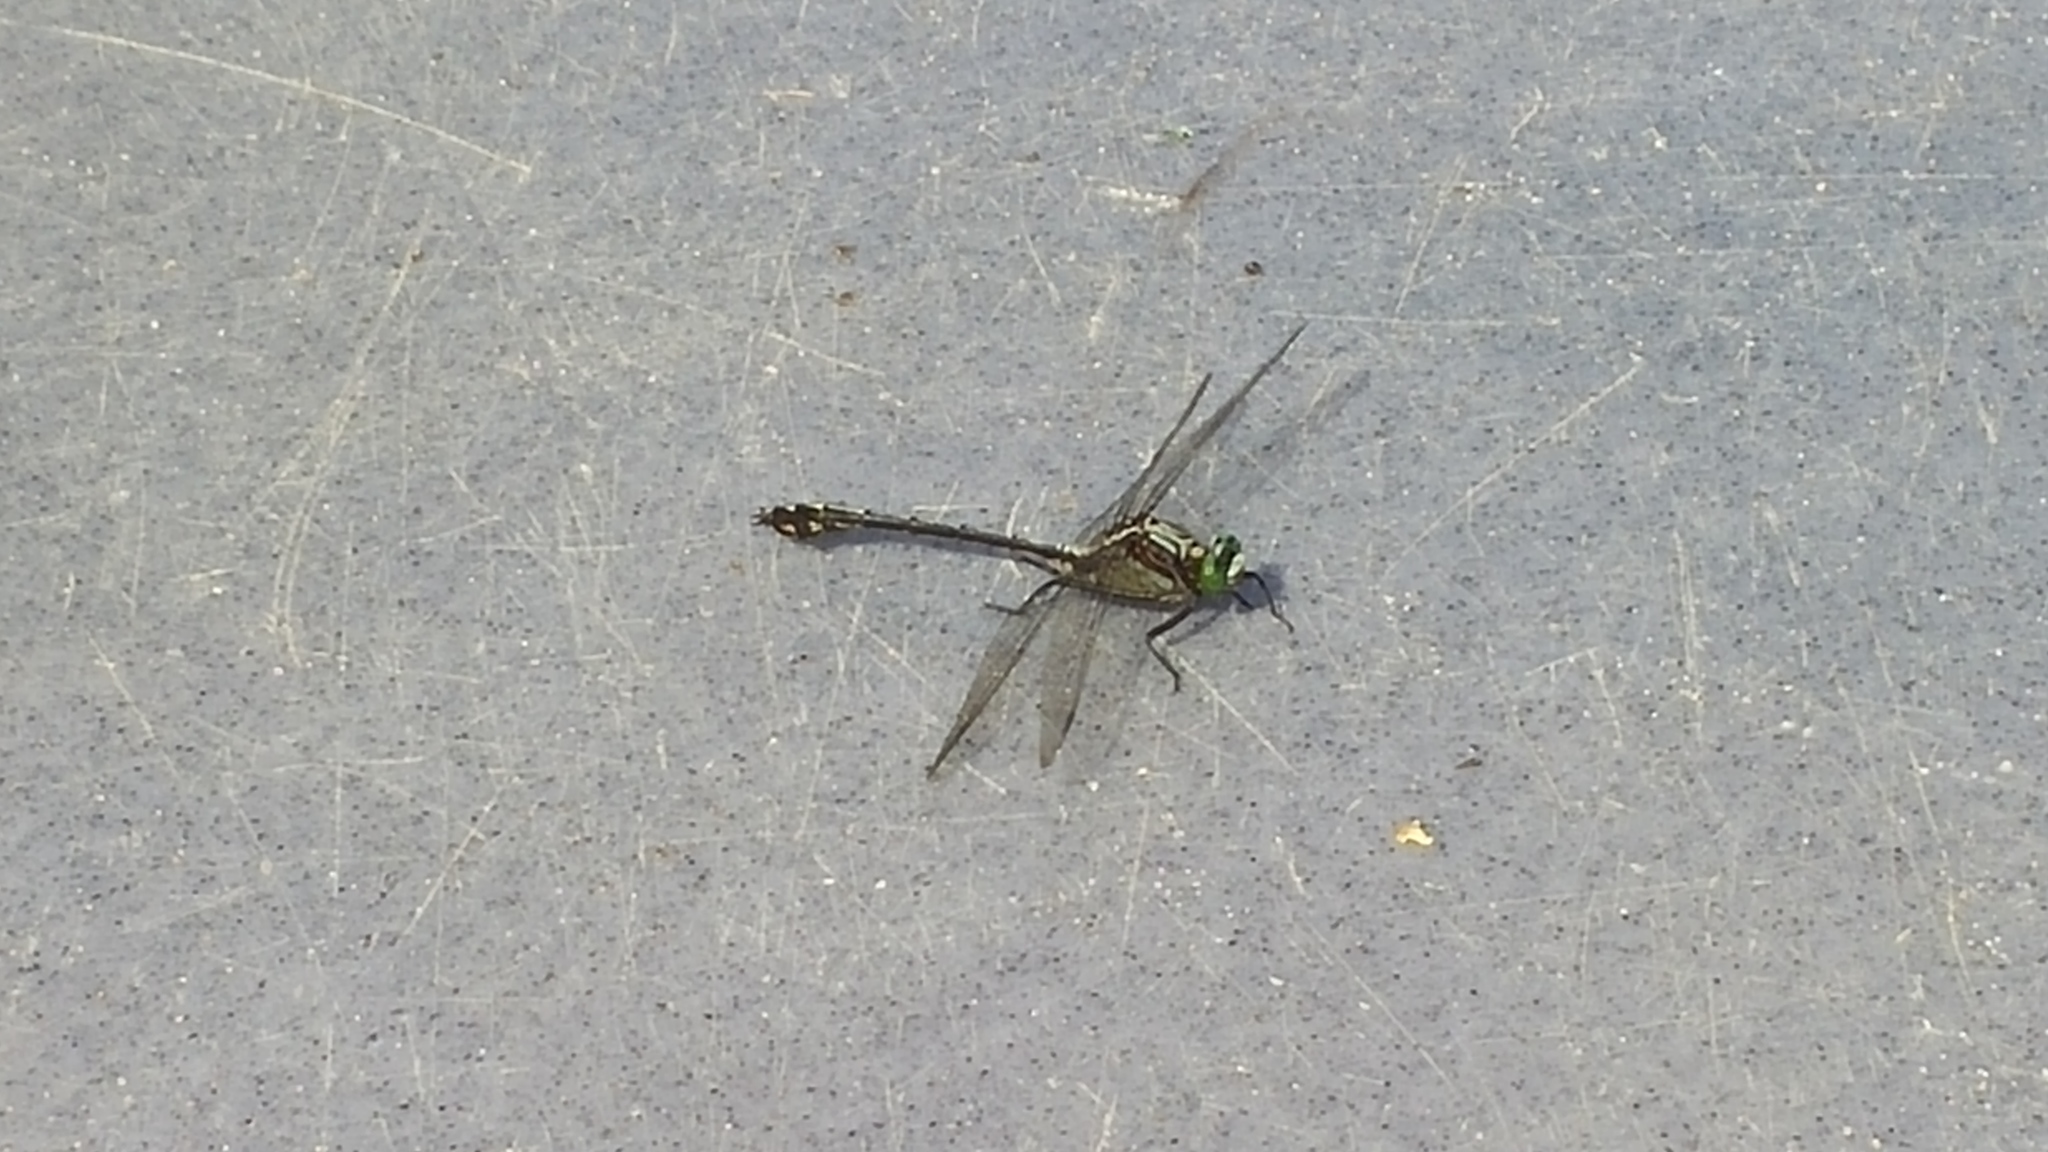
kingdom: Animalia
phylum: Arthropoda
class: Insecta
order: Odonata
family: Gomphidae
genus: Dromogomphus
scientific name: Dromogomphus spinosus
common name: Black-shouldered spinyleg
